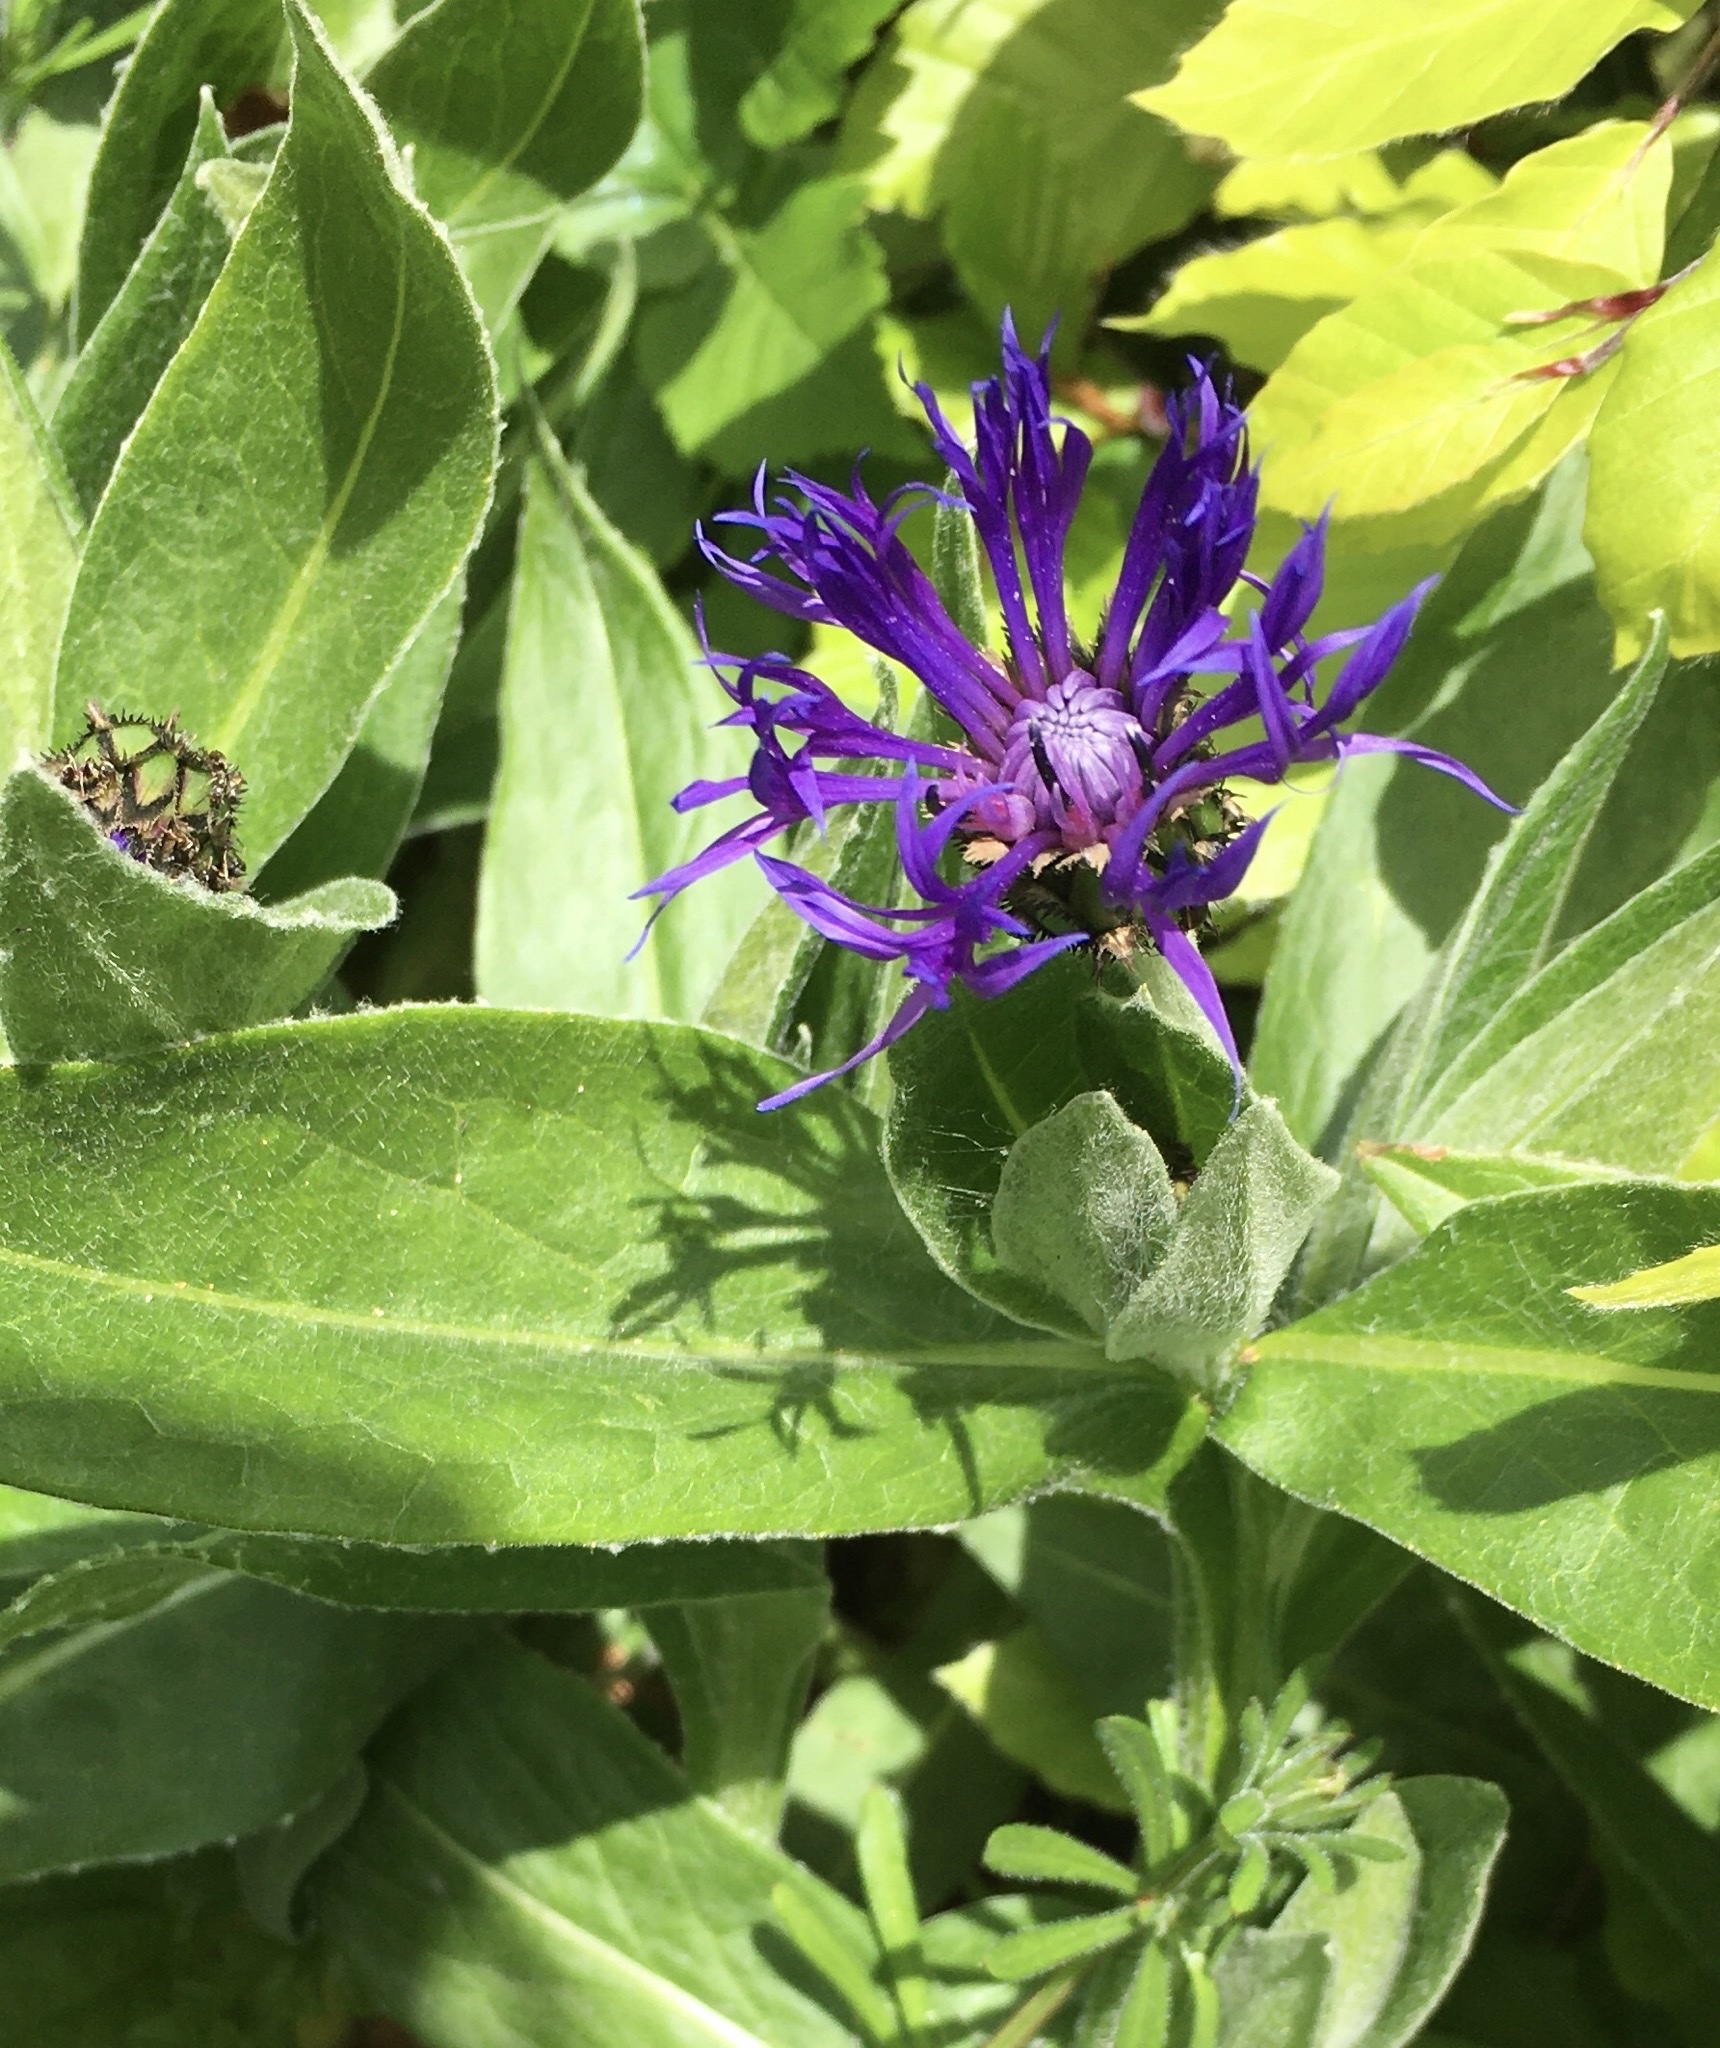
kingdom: Plantae
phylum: Tracheophyta
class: Magnoliopsida
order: Asterales
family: Asteraceae
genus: Centaurea
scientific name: Centaurea montana
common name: Perennial cornflower
